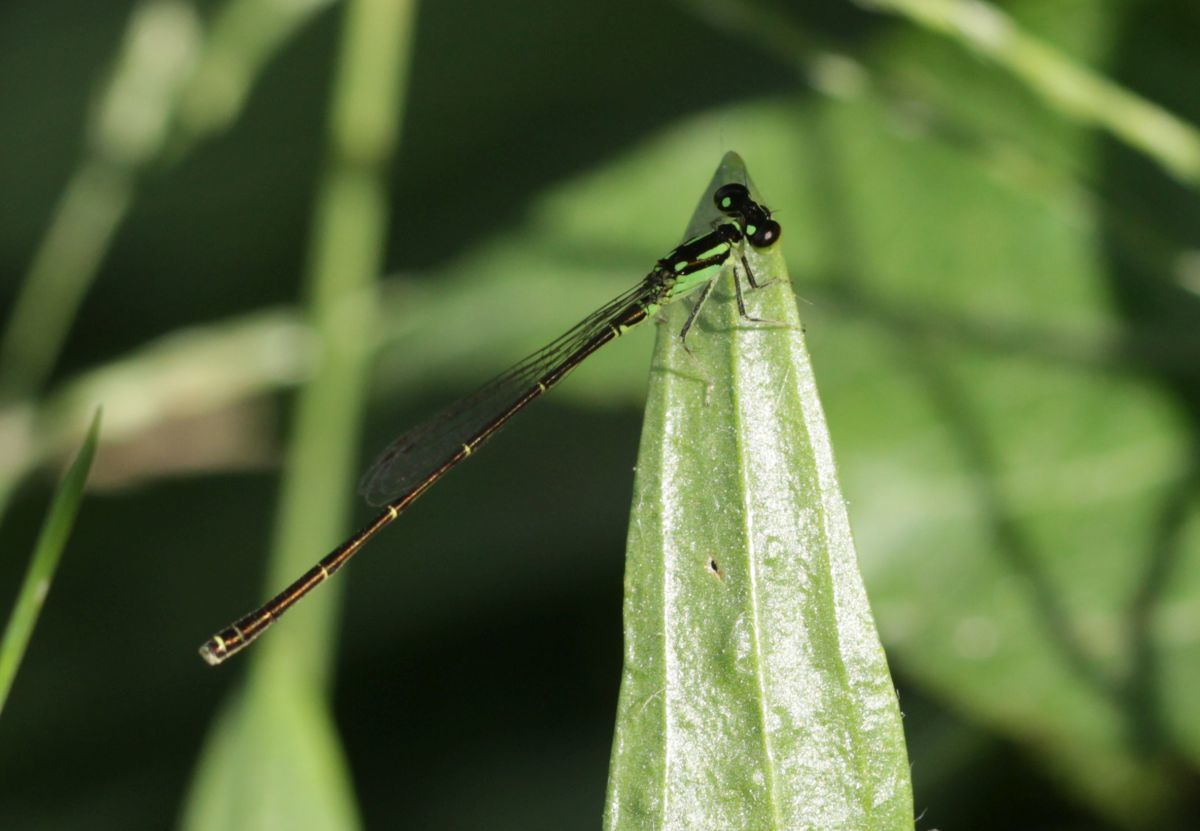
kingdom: Animalia
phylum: Arthropoda
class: Insecta
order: Odonata
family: Coenagrionidae
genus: Ischnura
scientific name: Ischnura posita
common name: Fragile forktail
